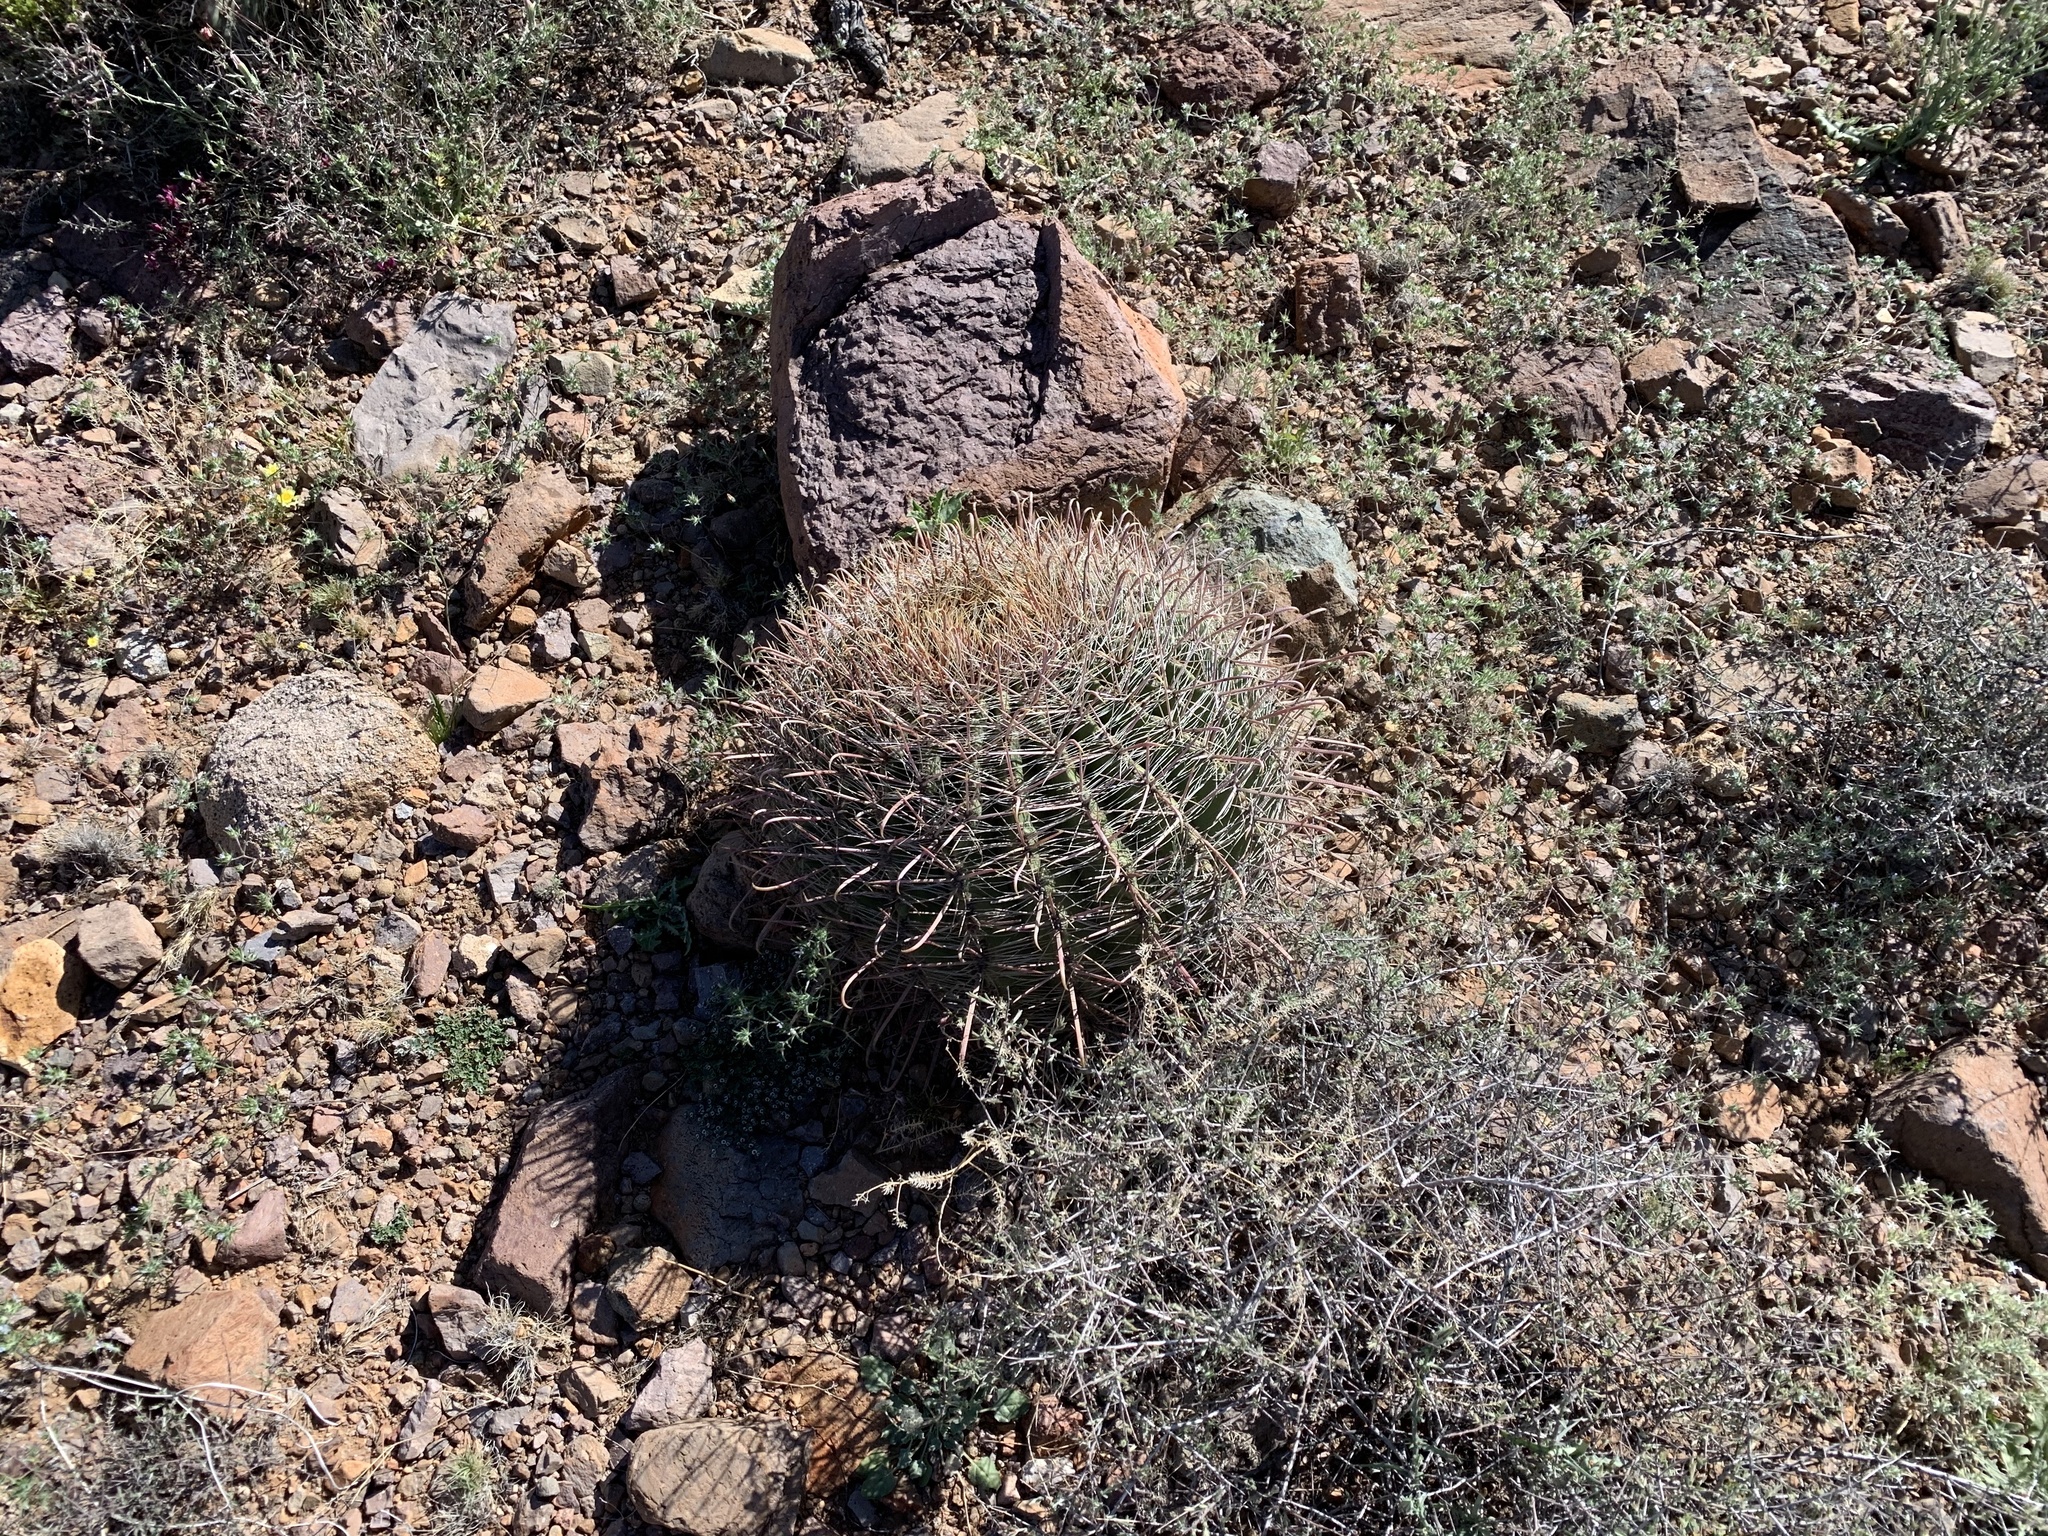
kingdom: Plantae
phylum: Tracheophyta
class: Magnoliopsida
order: Caryophyllales
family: Cactaceae
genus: Ferocactus
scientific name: Ferocactus wislizeni
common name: Candy barrel cactus
